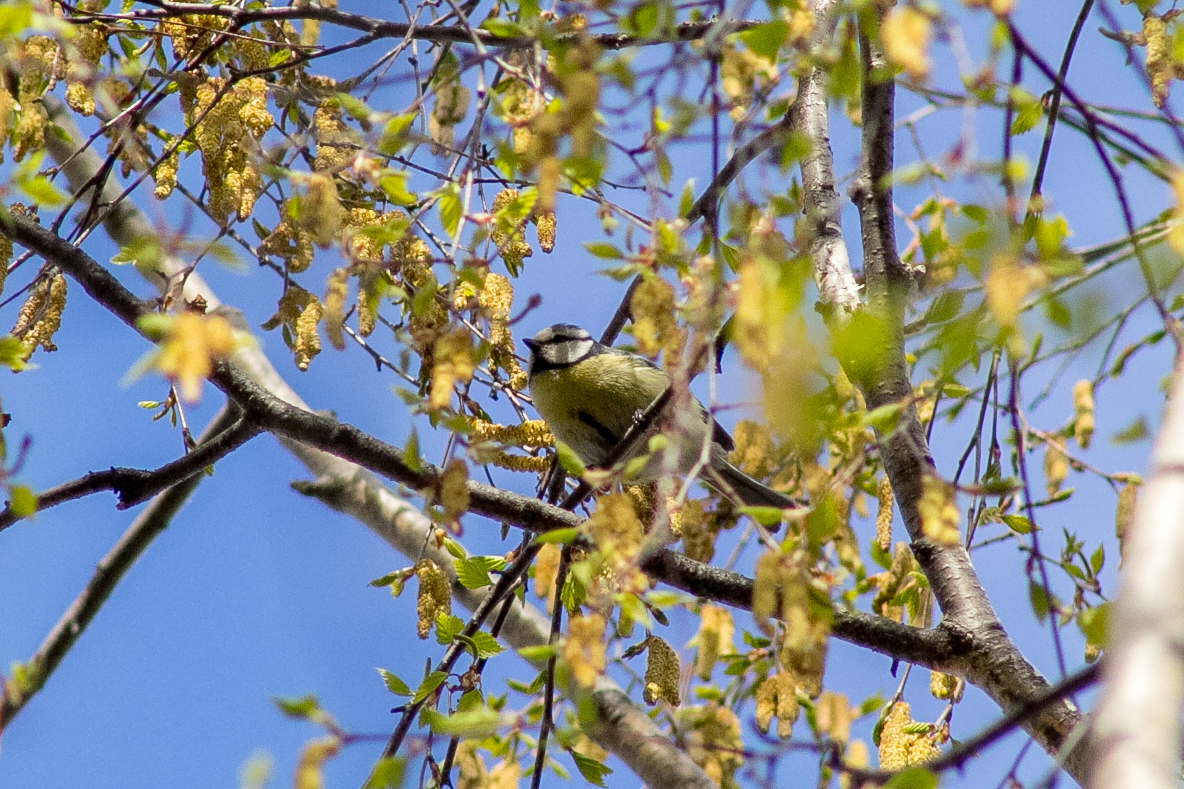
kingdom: Animalia
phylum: Chordata
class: Aves
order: Passeriformes
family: Paridae
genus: Cyanistes
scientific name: Cyanistes caeruleus
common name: Eurasian blue tit
